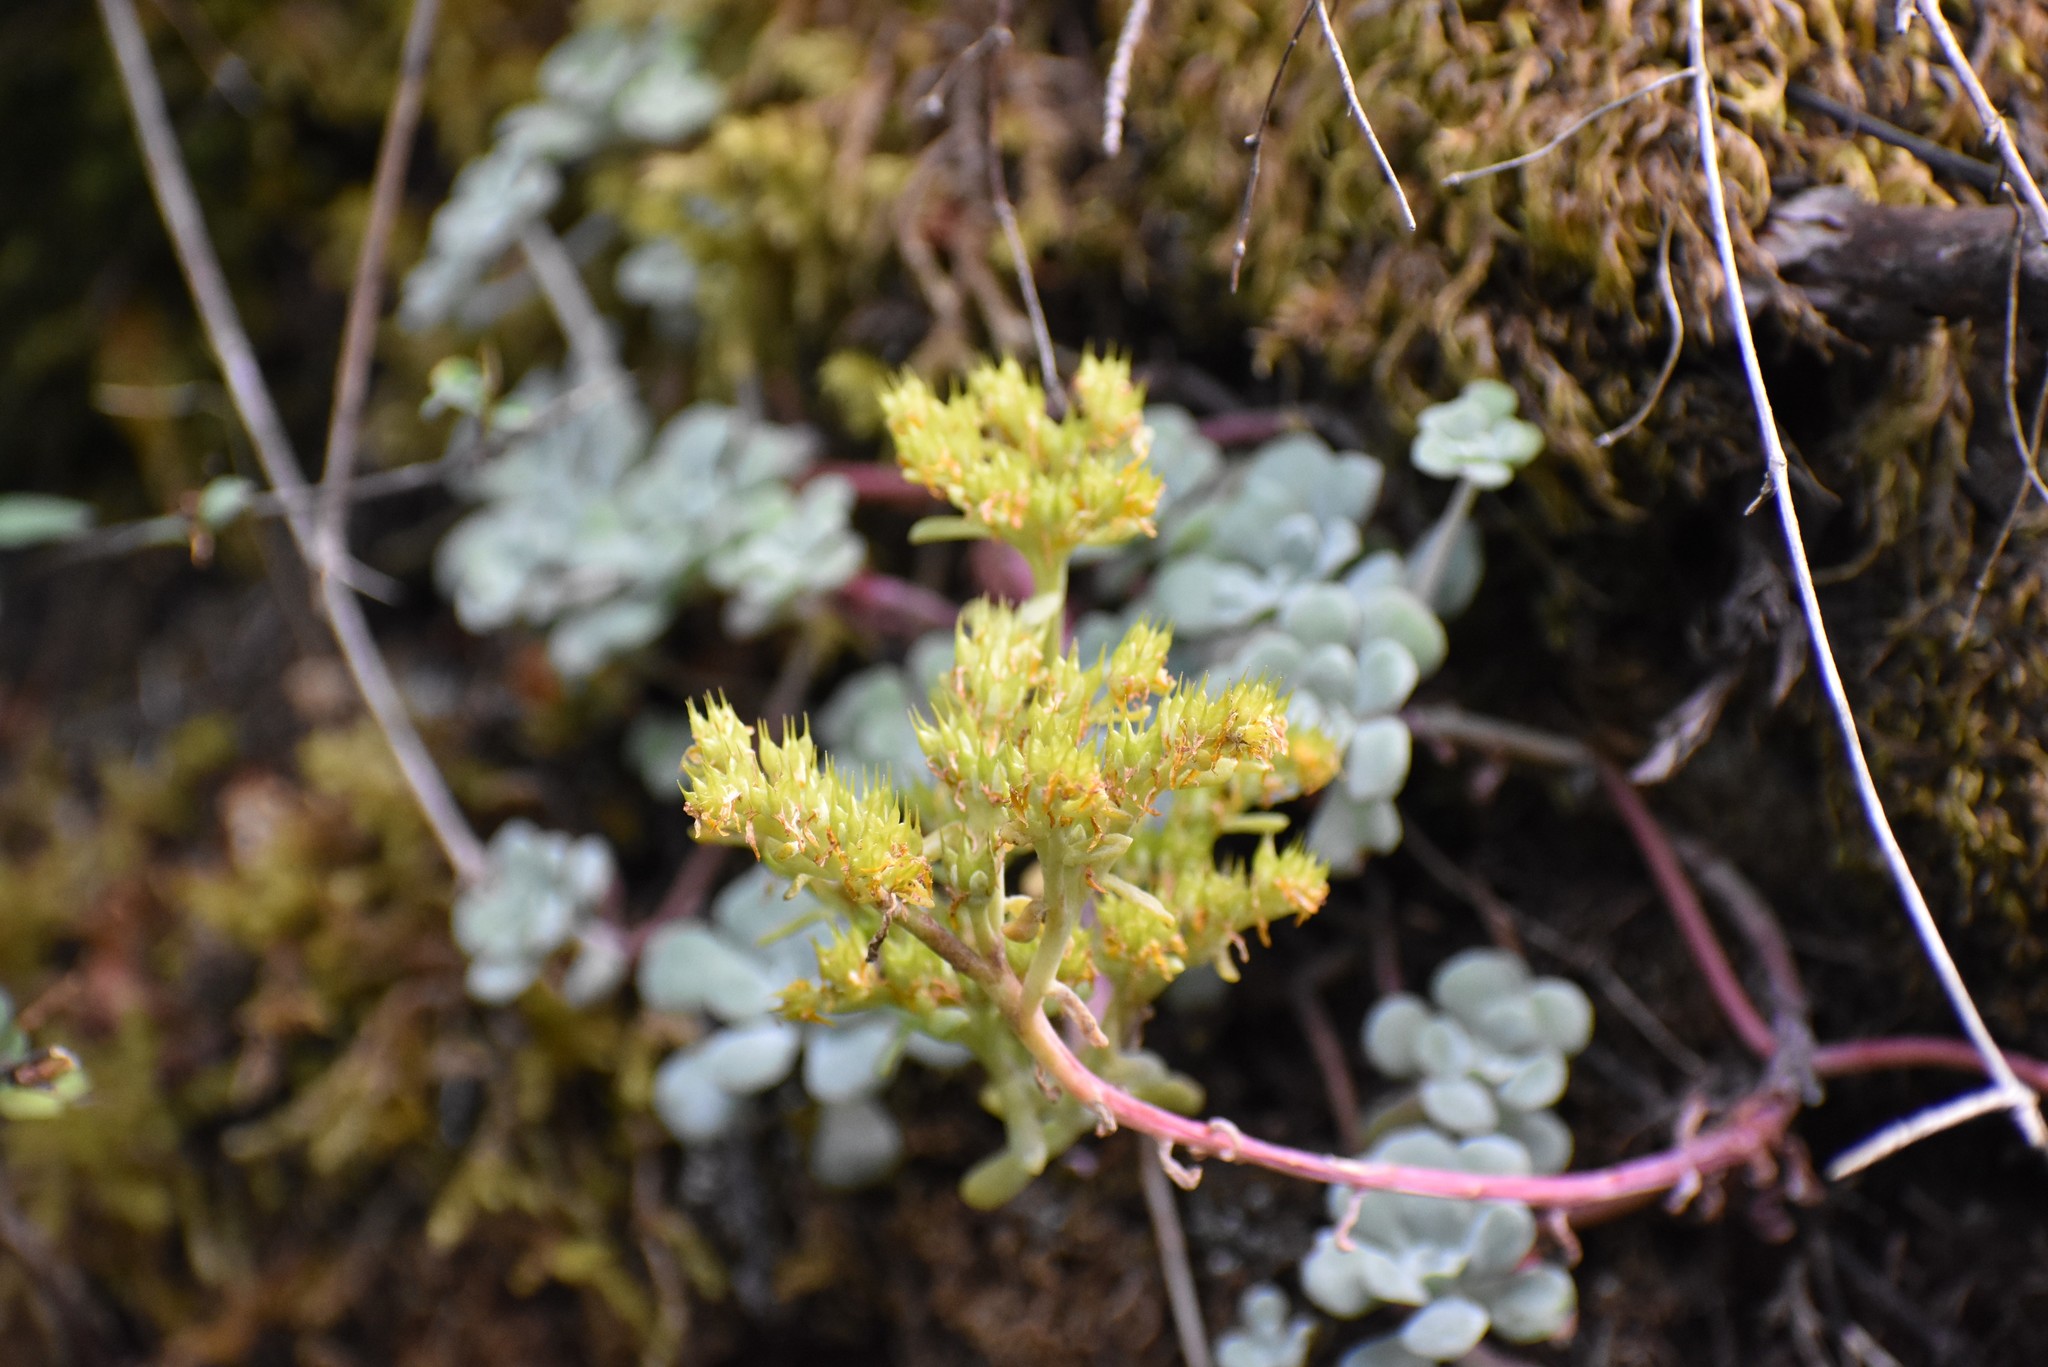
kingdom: Plantae
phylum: Tracheophyta
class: Magnoliopsida
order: Saxifragales
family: Crassulaceae
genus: Sedum
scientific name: Sedum spathulifolium
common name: Colorado stonecrop
